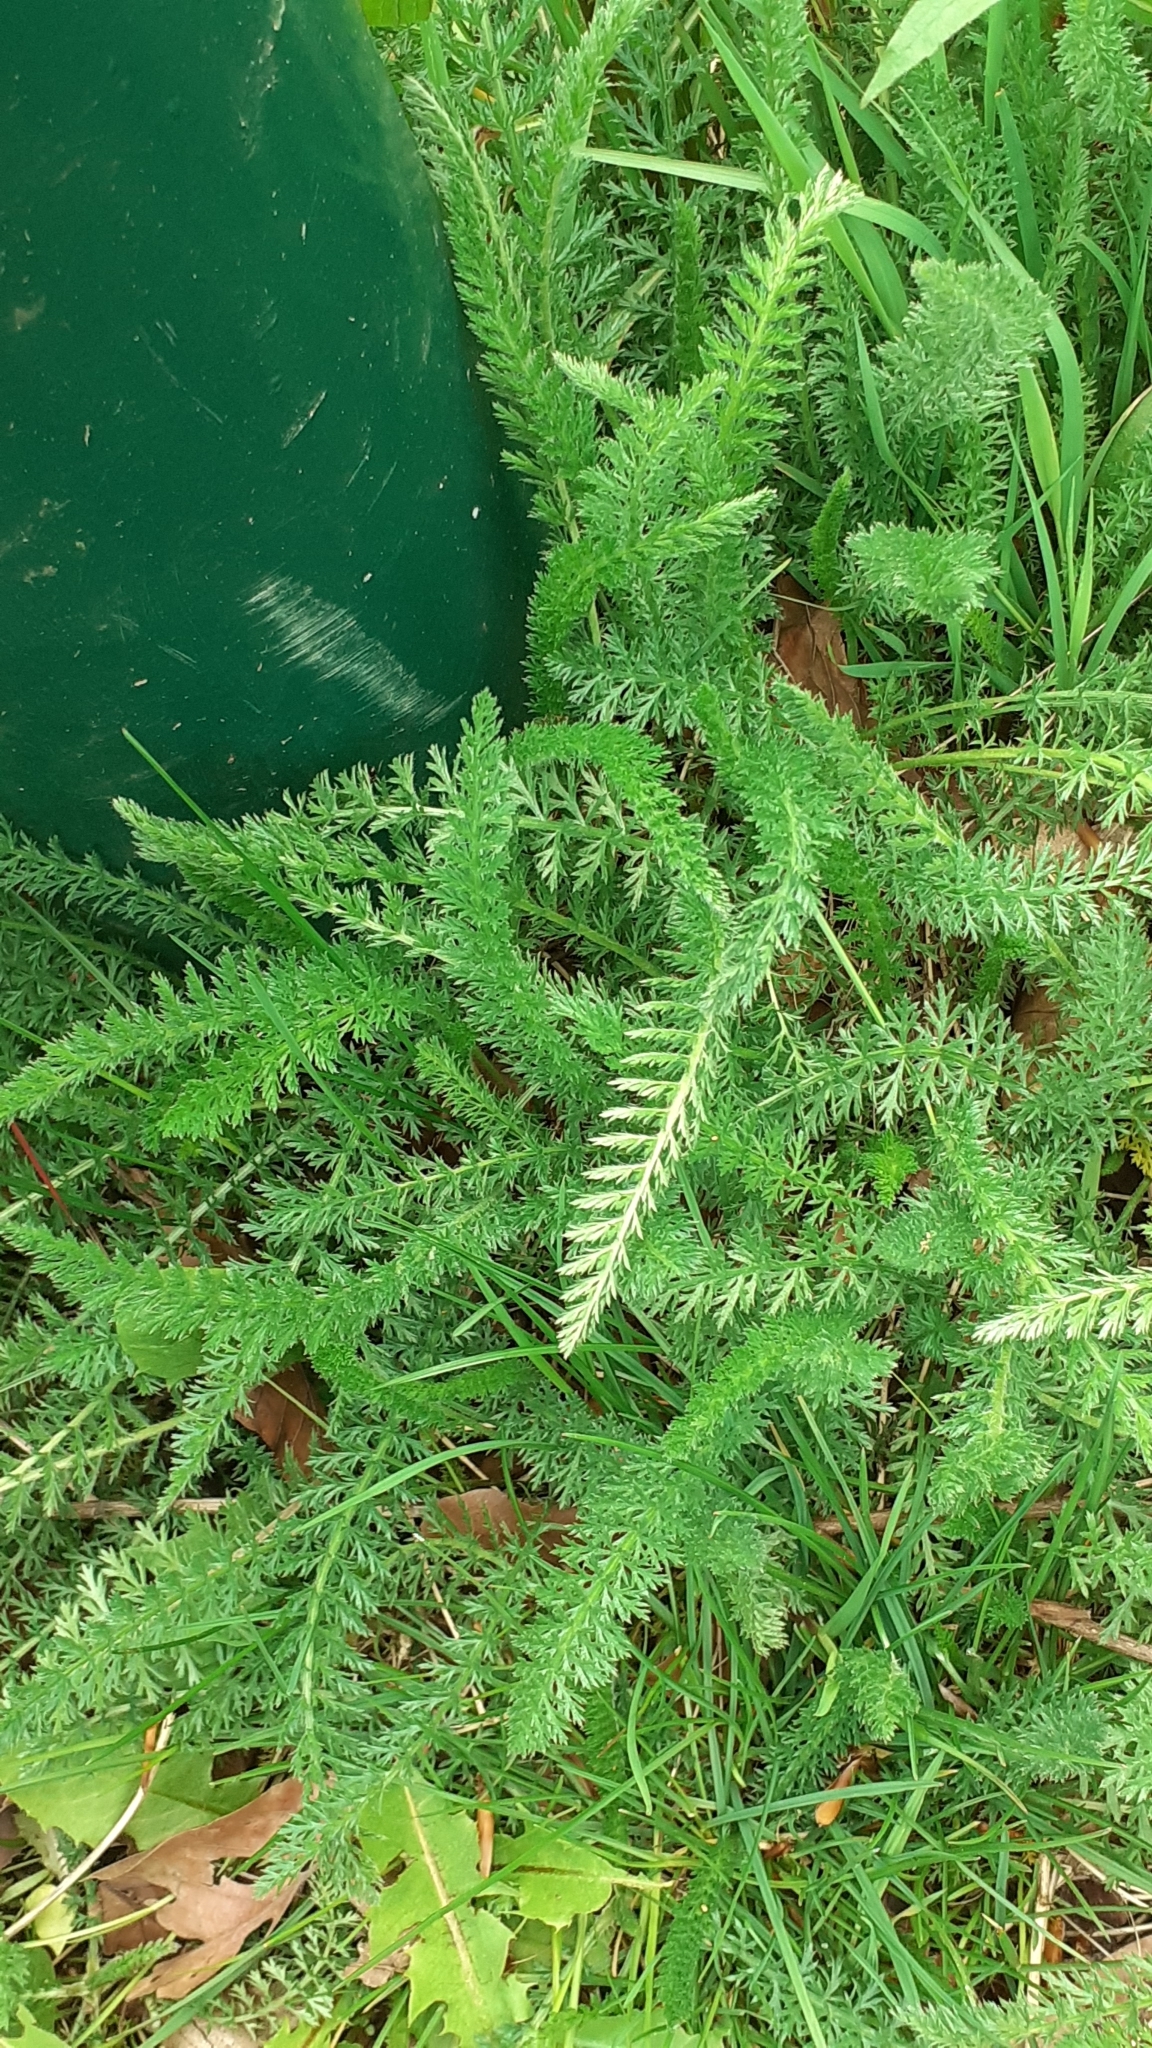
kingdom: Plantae
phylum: Tracheophyta
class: Magnoliopsida
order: Asterales
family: Asteraceae
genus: Achillea
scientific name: Achillea millefolium
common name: Yarrow
